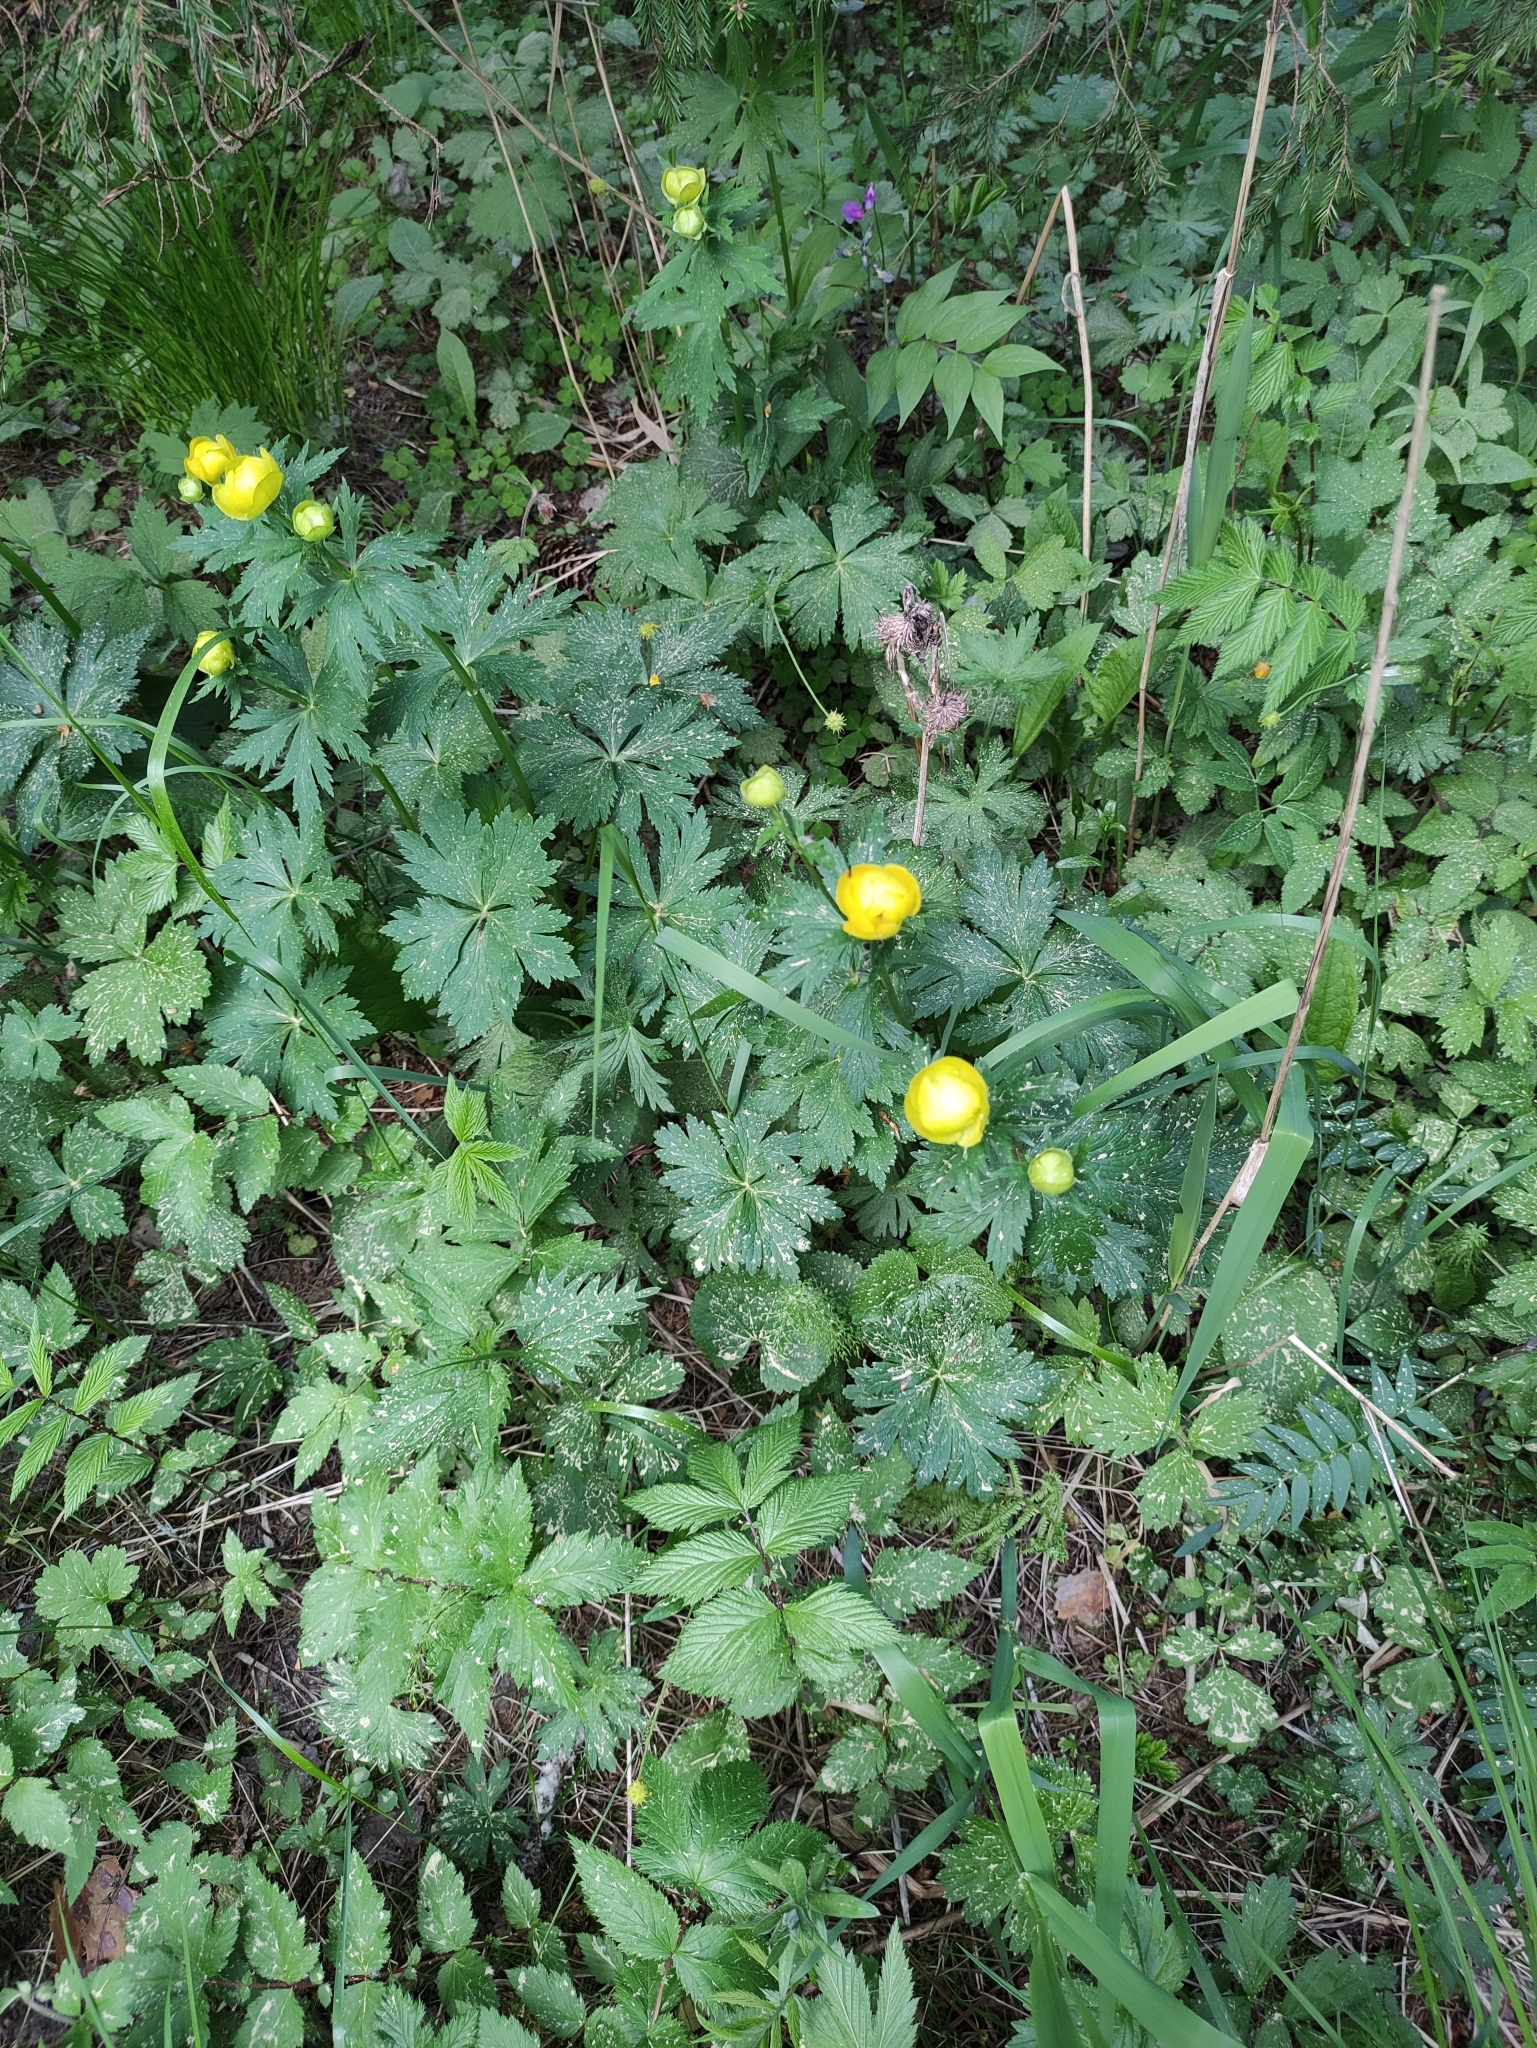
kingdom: Plantae
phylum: Tracheophyta
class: Magnoliopsida
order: Ranunculales
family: Ranunculaceae
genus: Trollius
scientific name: Trollius europaeus
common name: European globeflower
